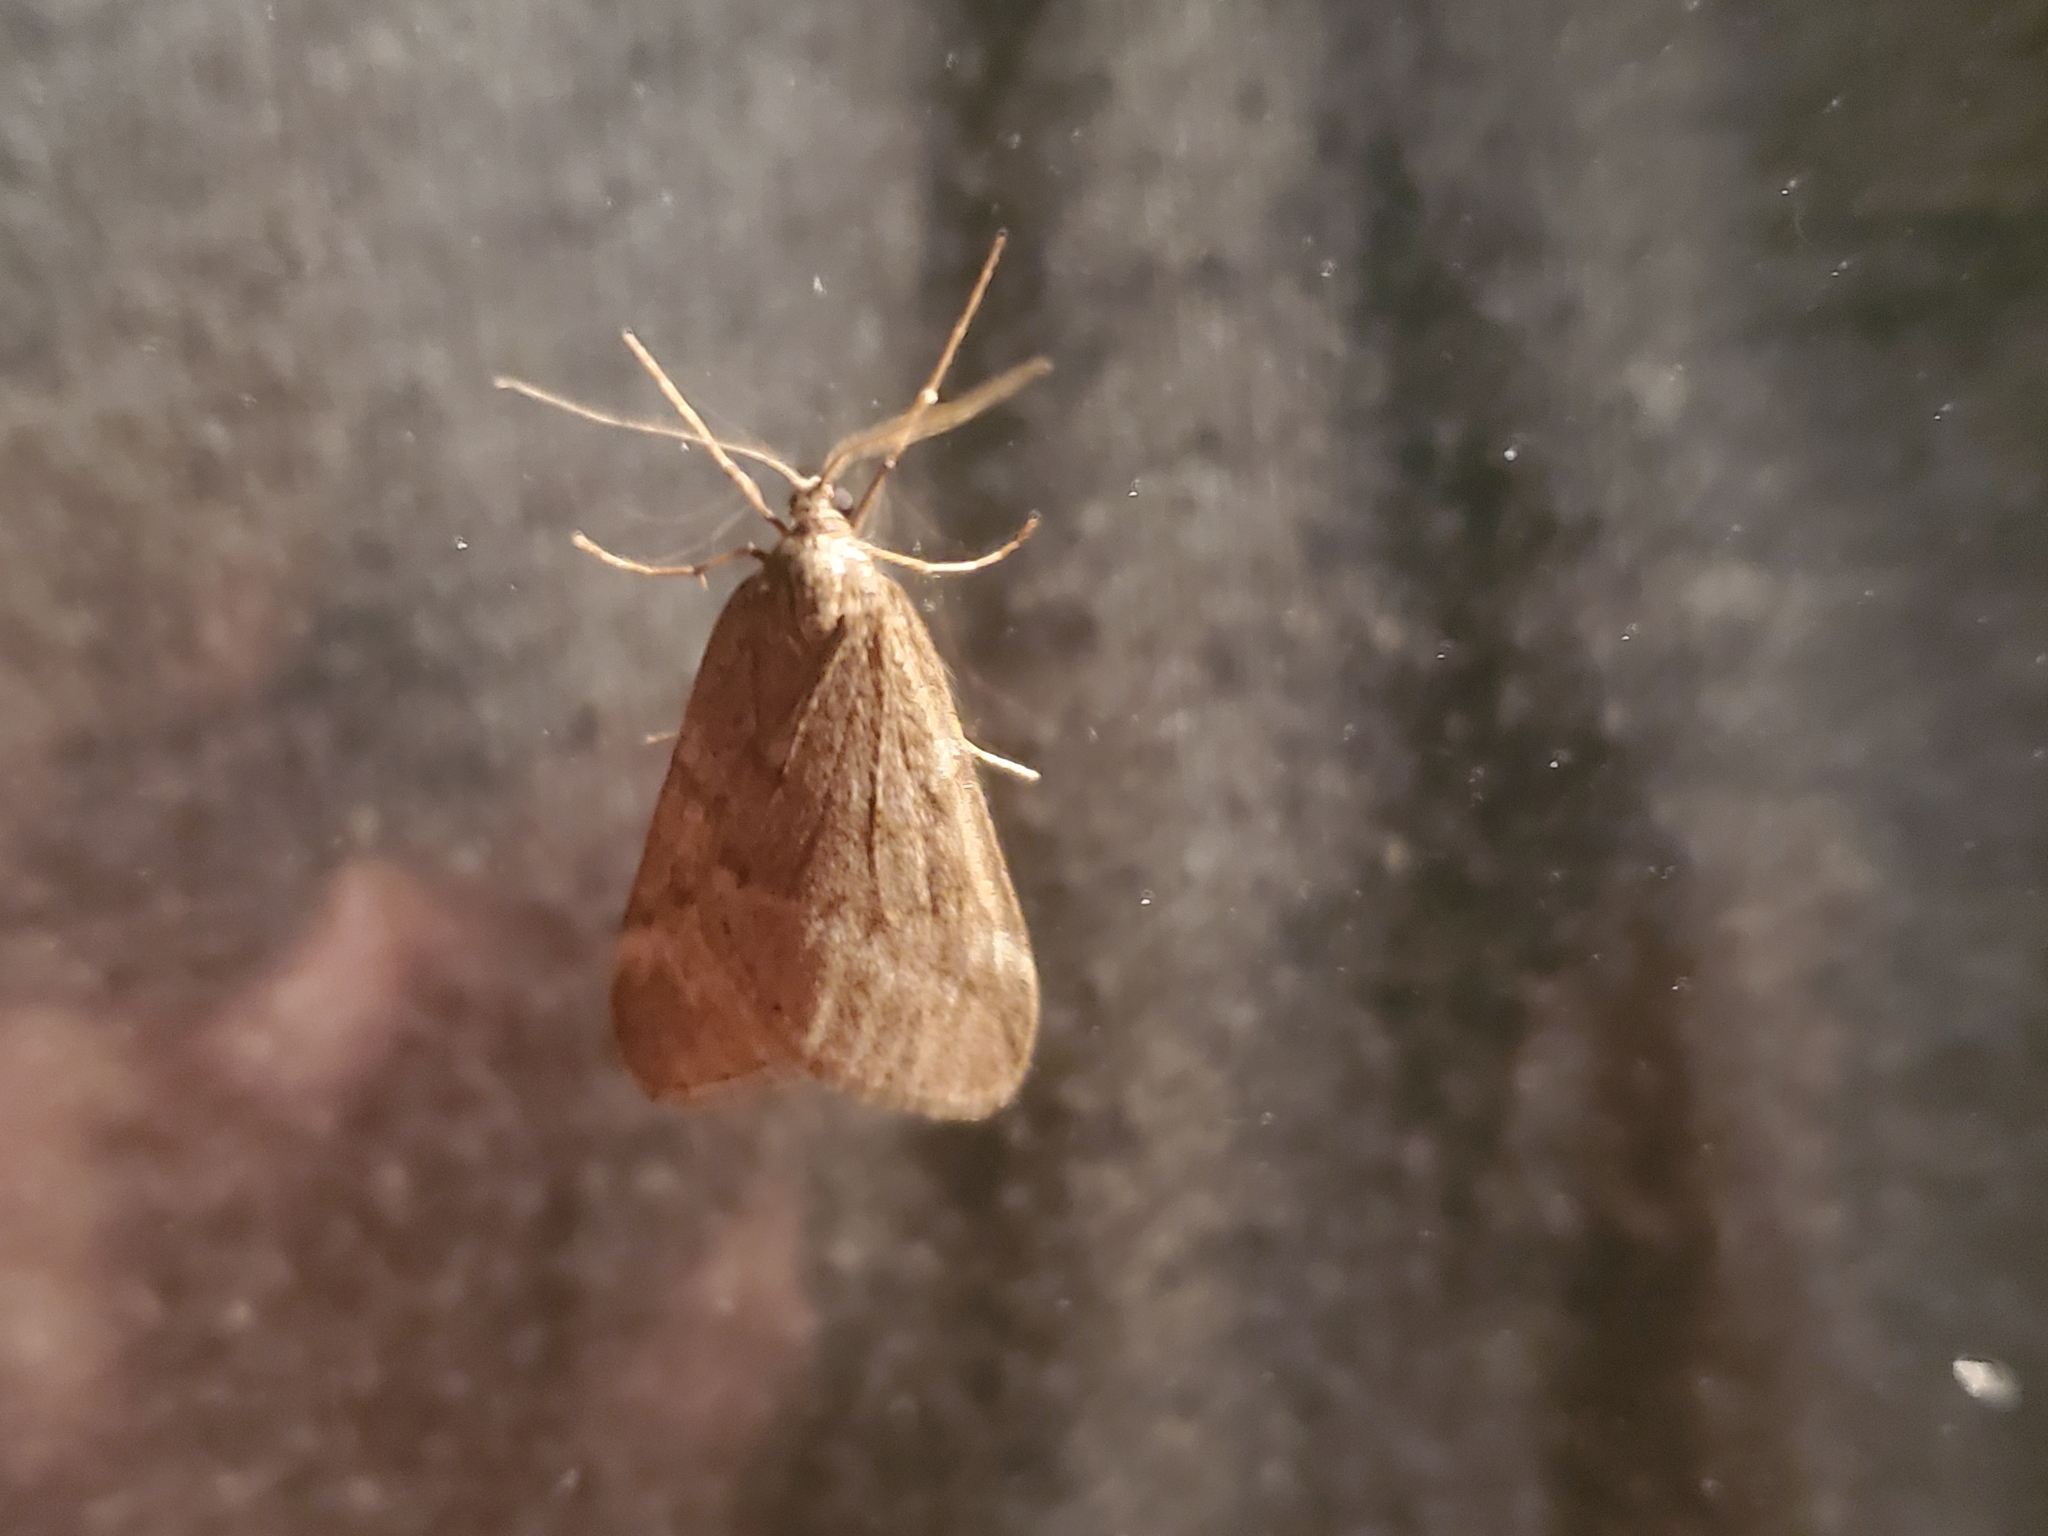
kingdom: Animalia
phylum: Arthropoda
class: Insecta
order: Lepidoptera
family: Geometridae
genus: Alsophila
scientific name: Alsophila pometaria
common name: Fall cankerworm
